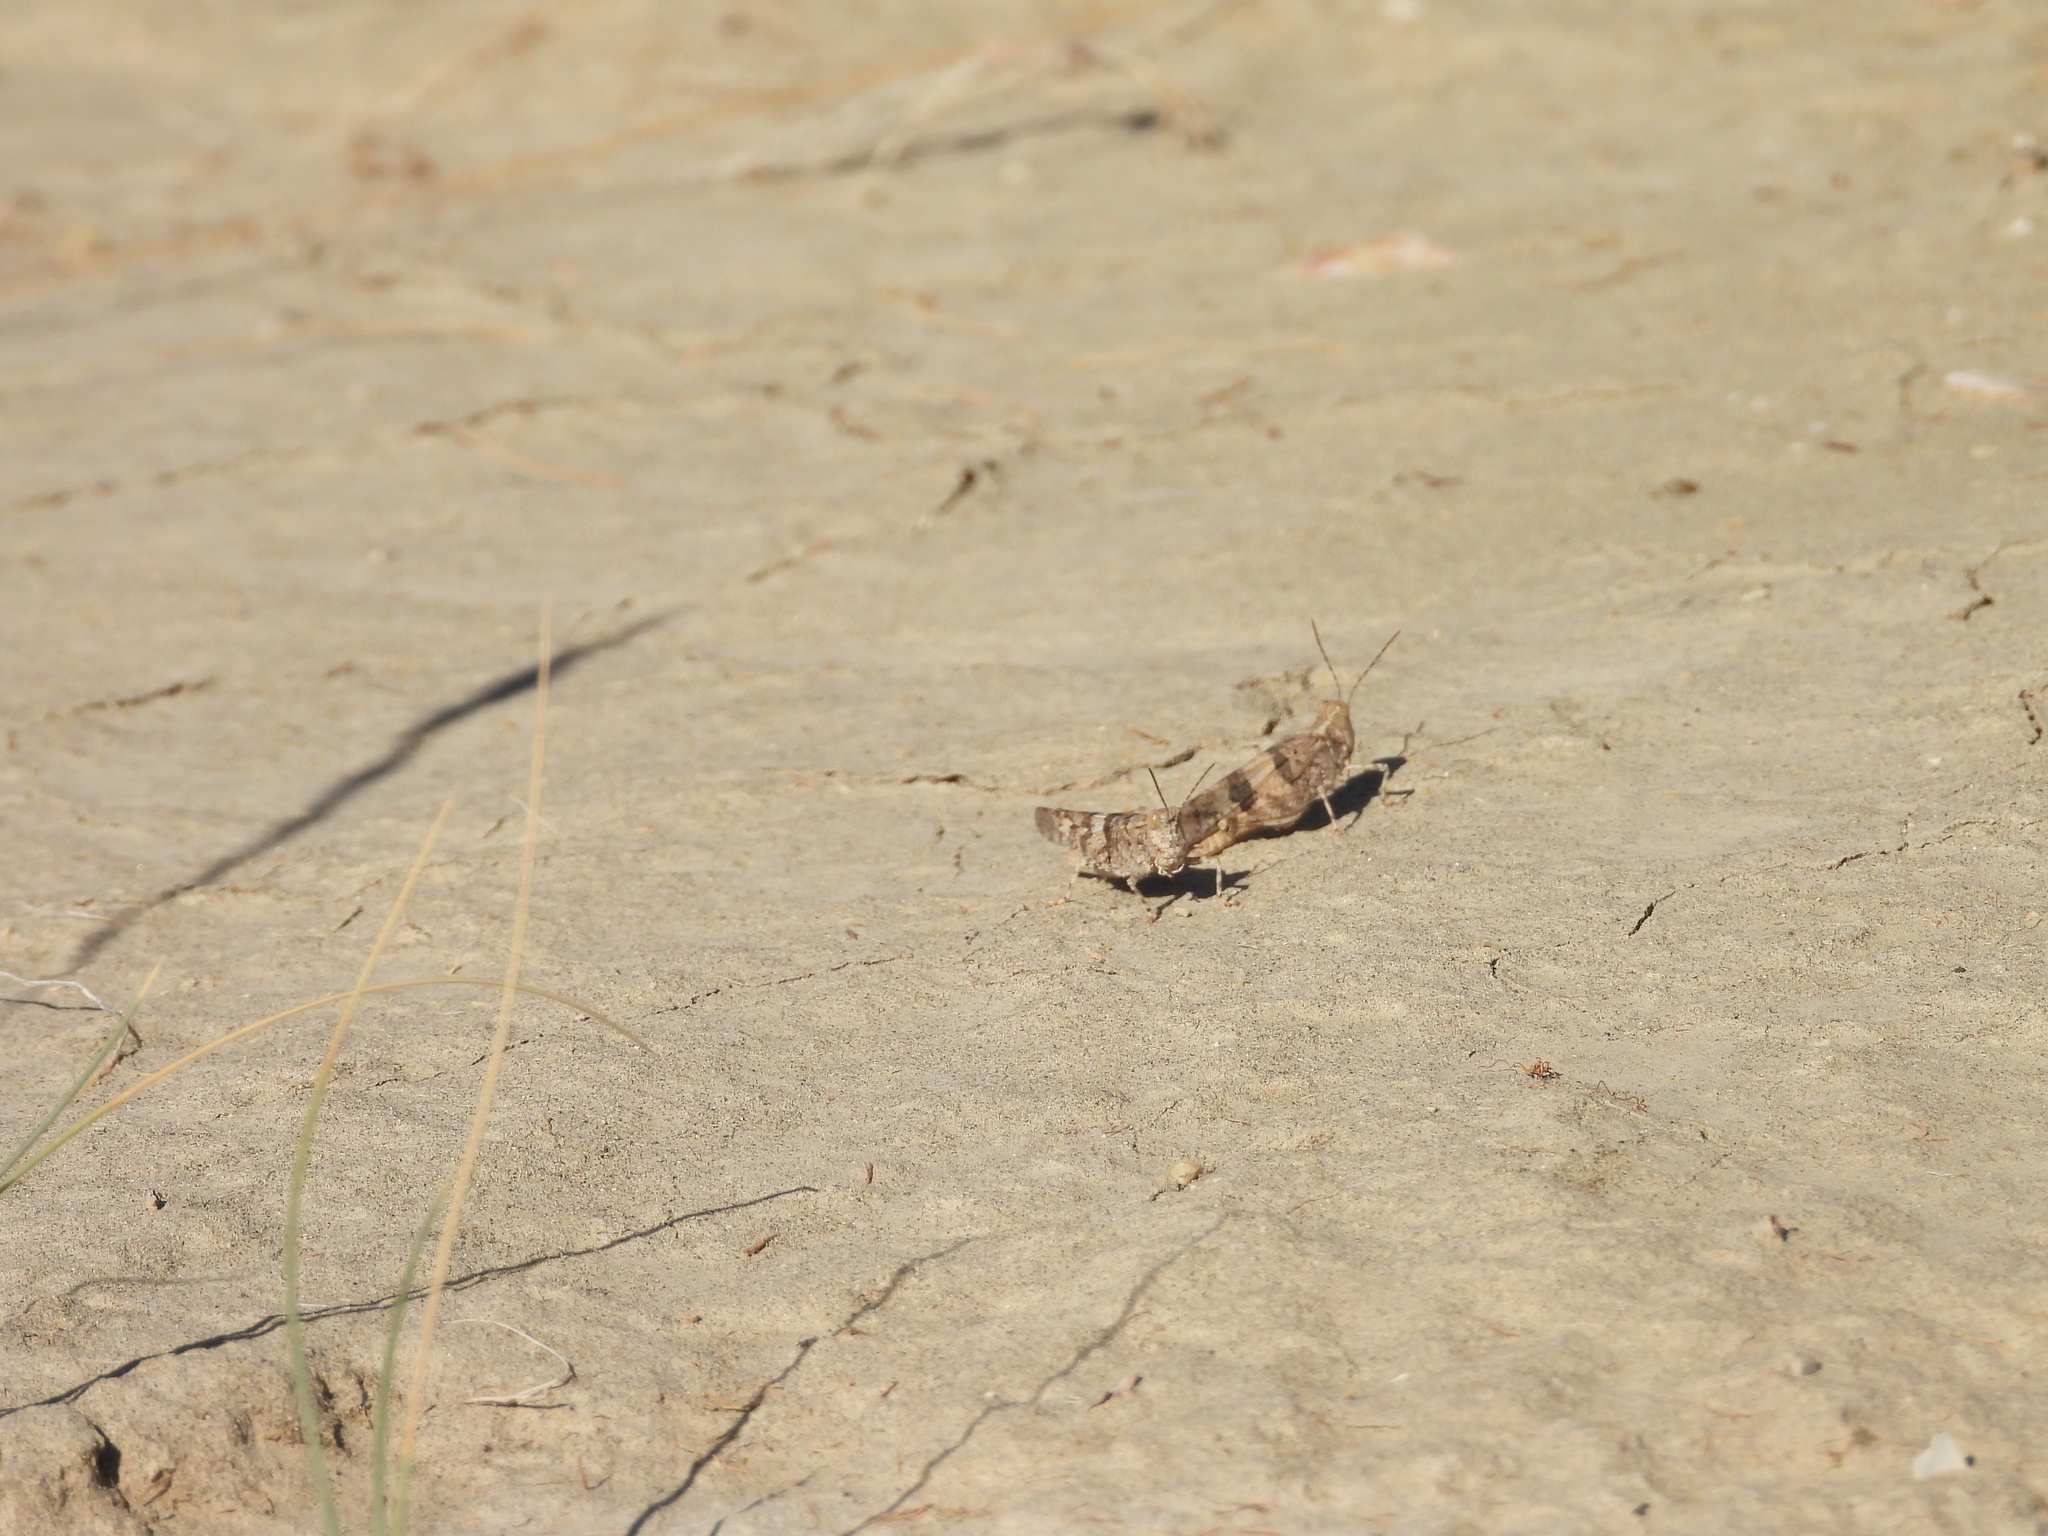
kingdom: Animalia
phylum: Arthropoda
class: Insecta
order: Orthoptera
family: Acrididae
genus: Trimerotropis
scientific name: Trimerotropis pallidipennis
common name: Pallid-winged grasshopper
